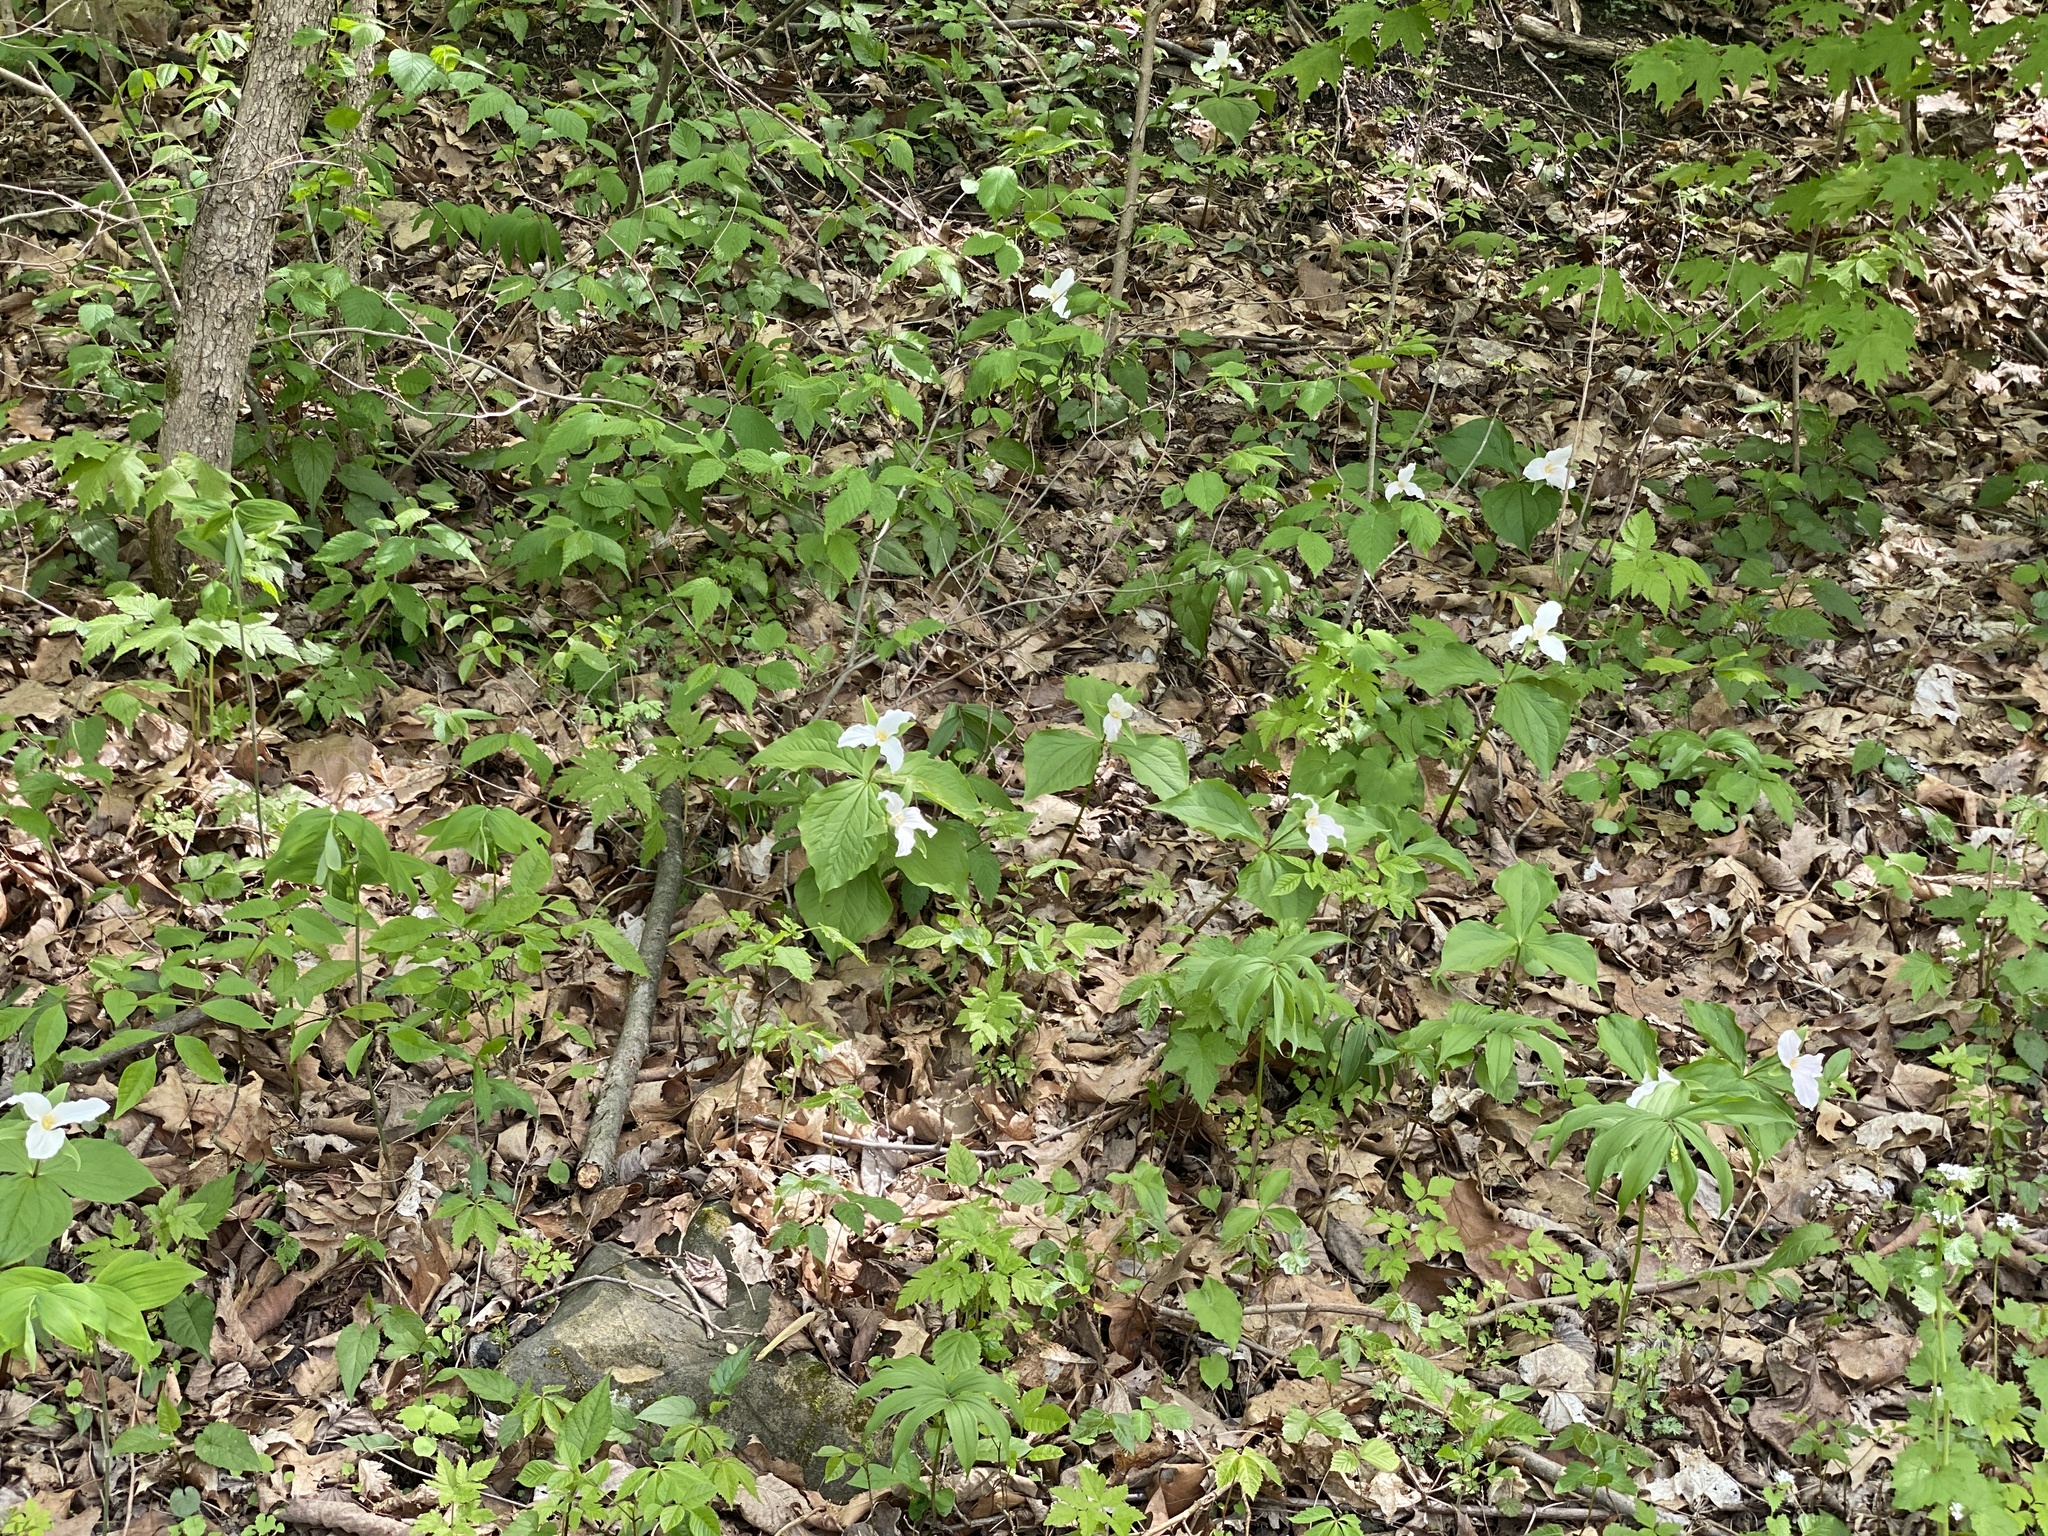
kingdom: Plantae
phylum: Tracheophyta
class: Liliopsida
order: Liliales
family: Melanthiaceae
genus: Trillium
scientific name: Trillium grandiflorum
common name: Great white trillium
